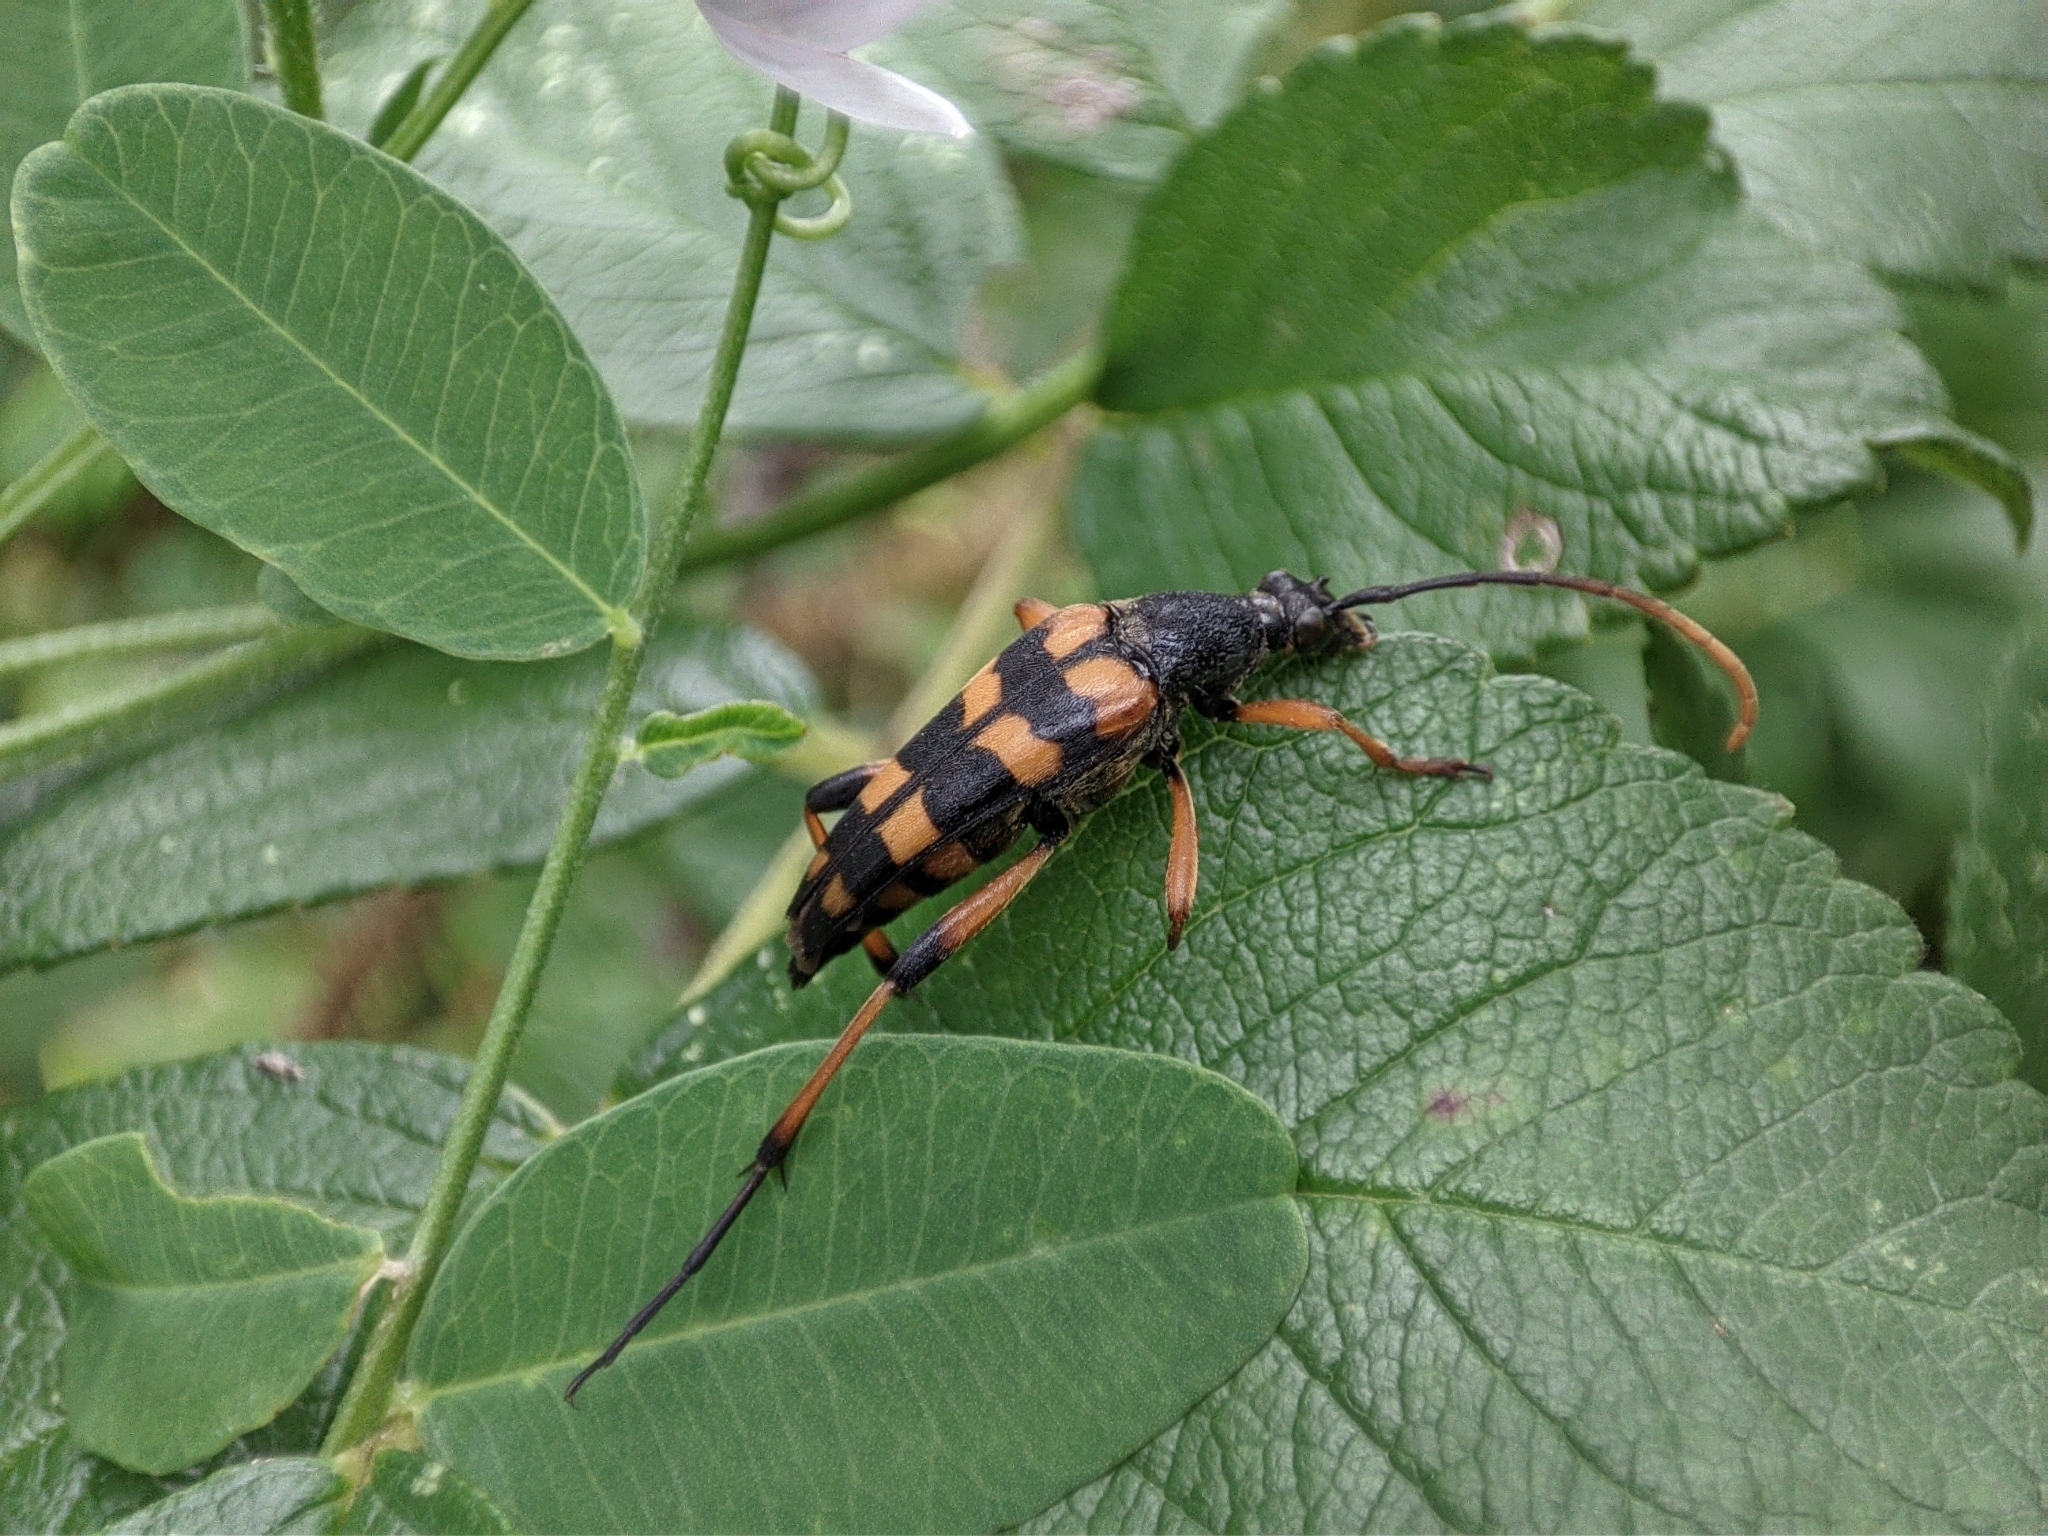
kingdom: Animalia
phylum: Arthropoda
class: Insecta
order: Coleoptera
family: Cerambycidae
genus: Strangalia
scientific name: Strangalia attenuata
